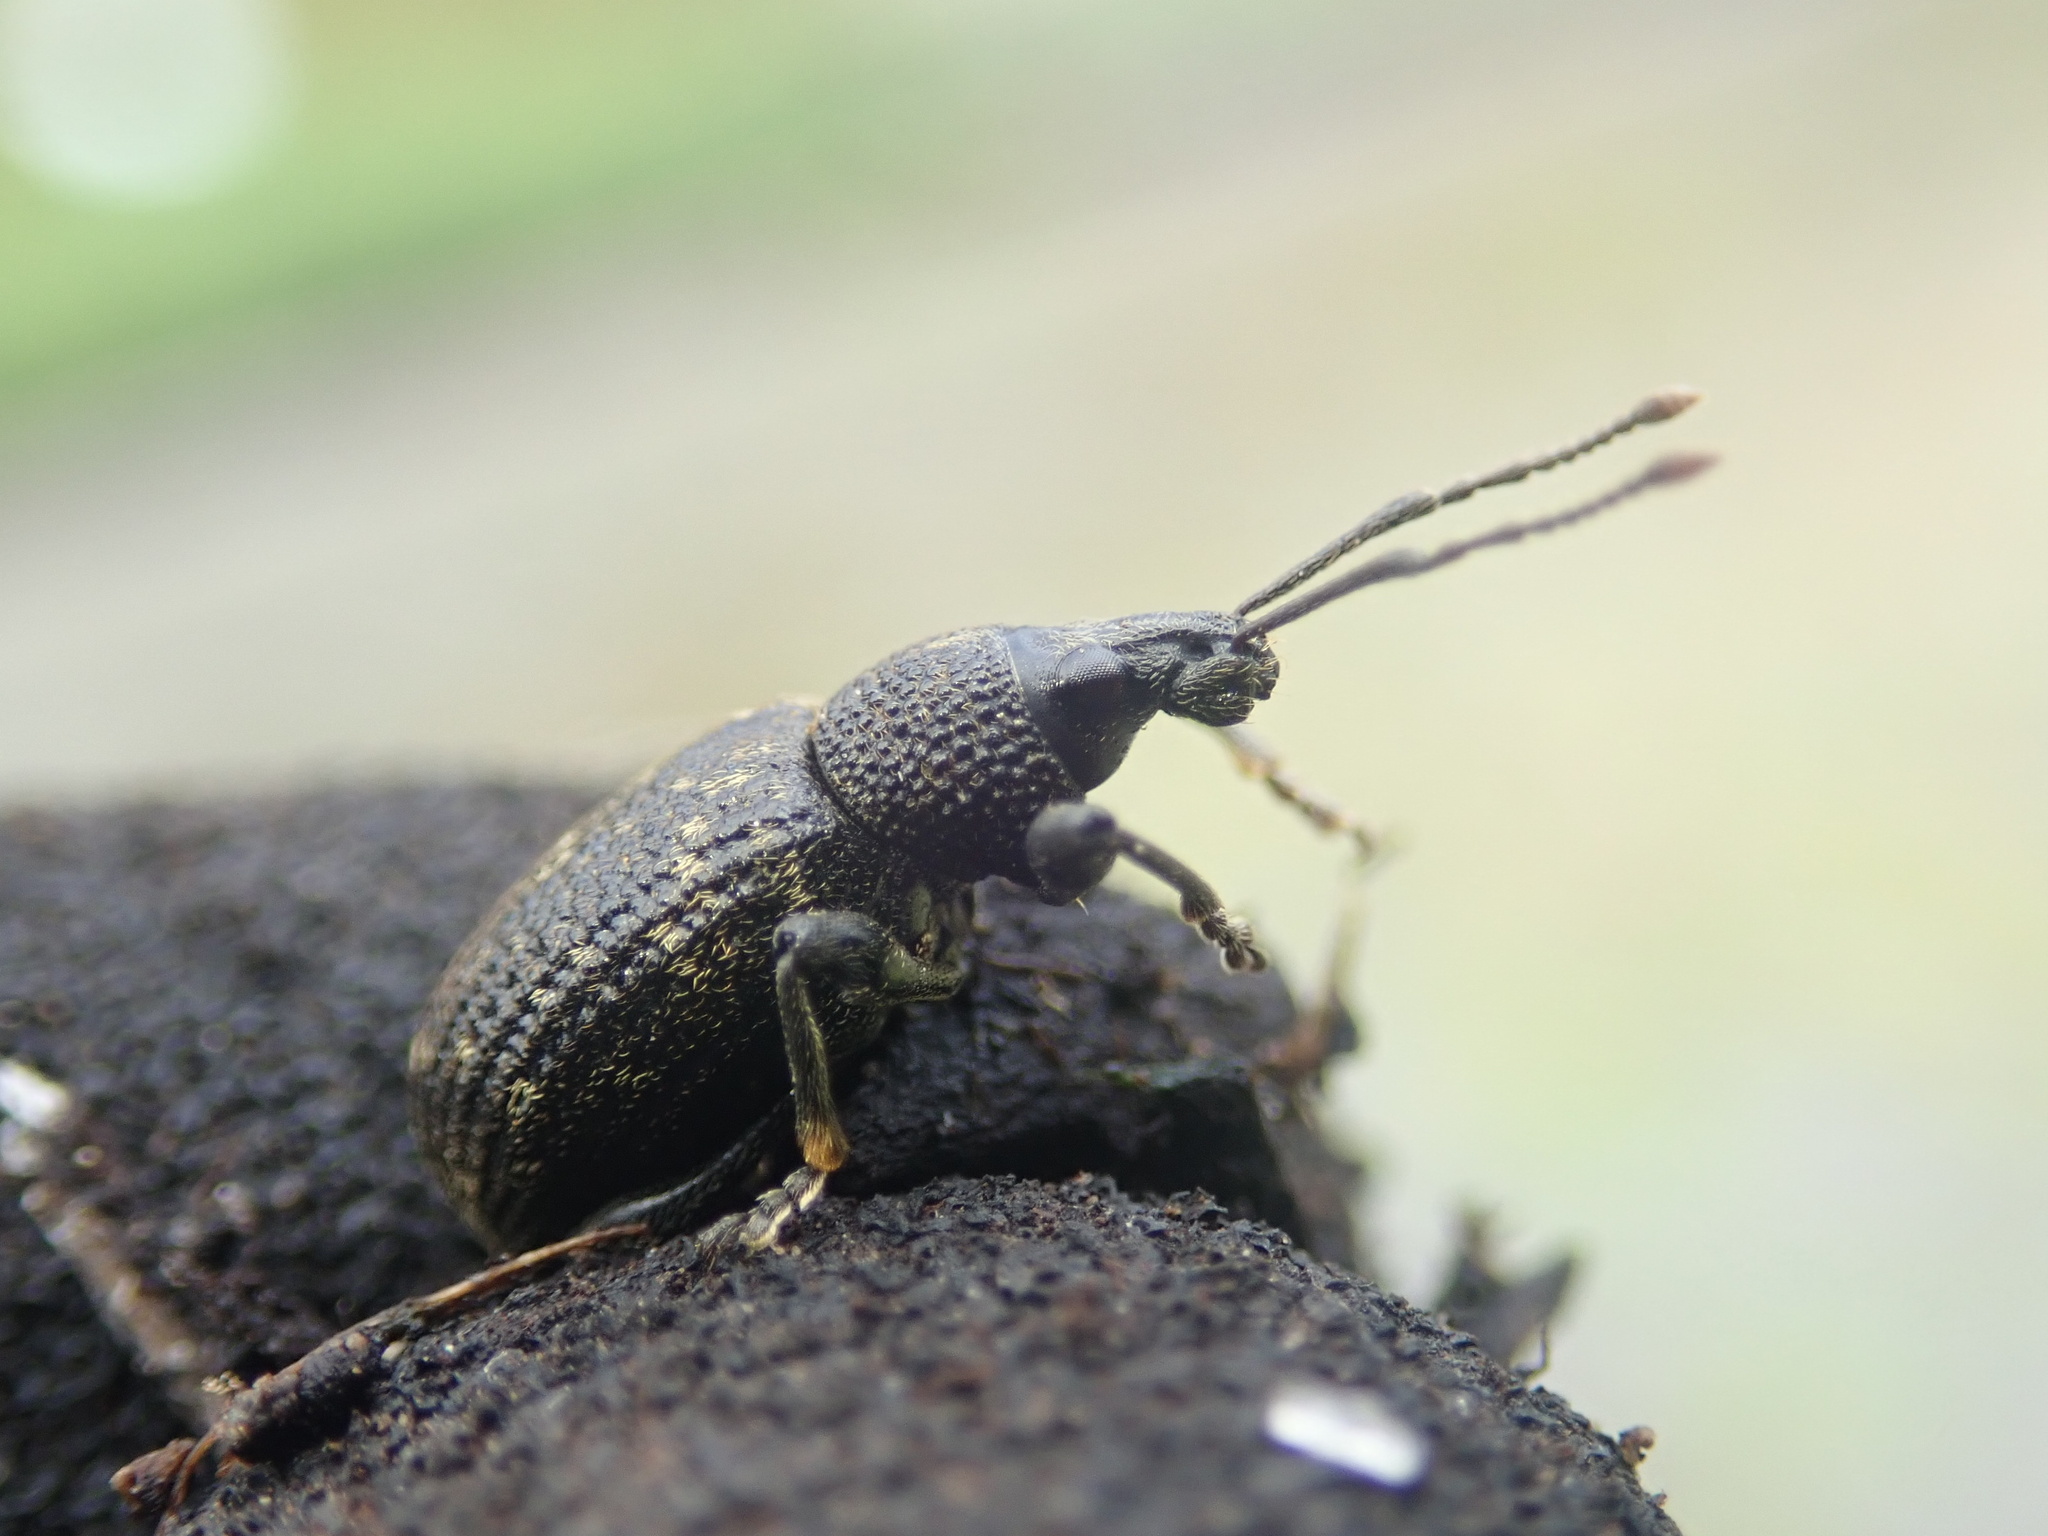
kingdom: Animalia
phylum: Arthropoda
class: Insecta
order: Coleoptera
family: Curculionidae
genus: Otiorhynchus
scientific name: Otiorhynchus sulcatus
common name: Black vine weevil
